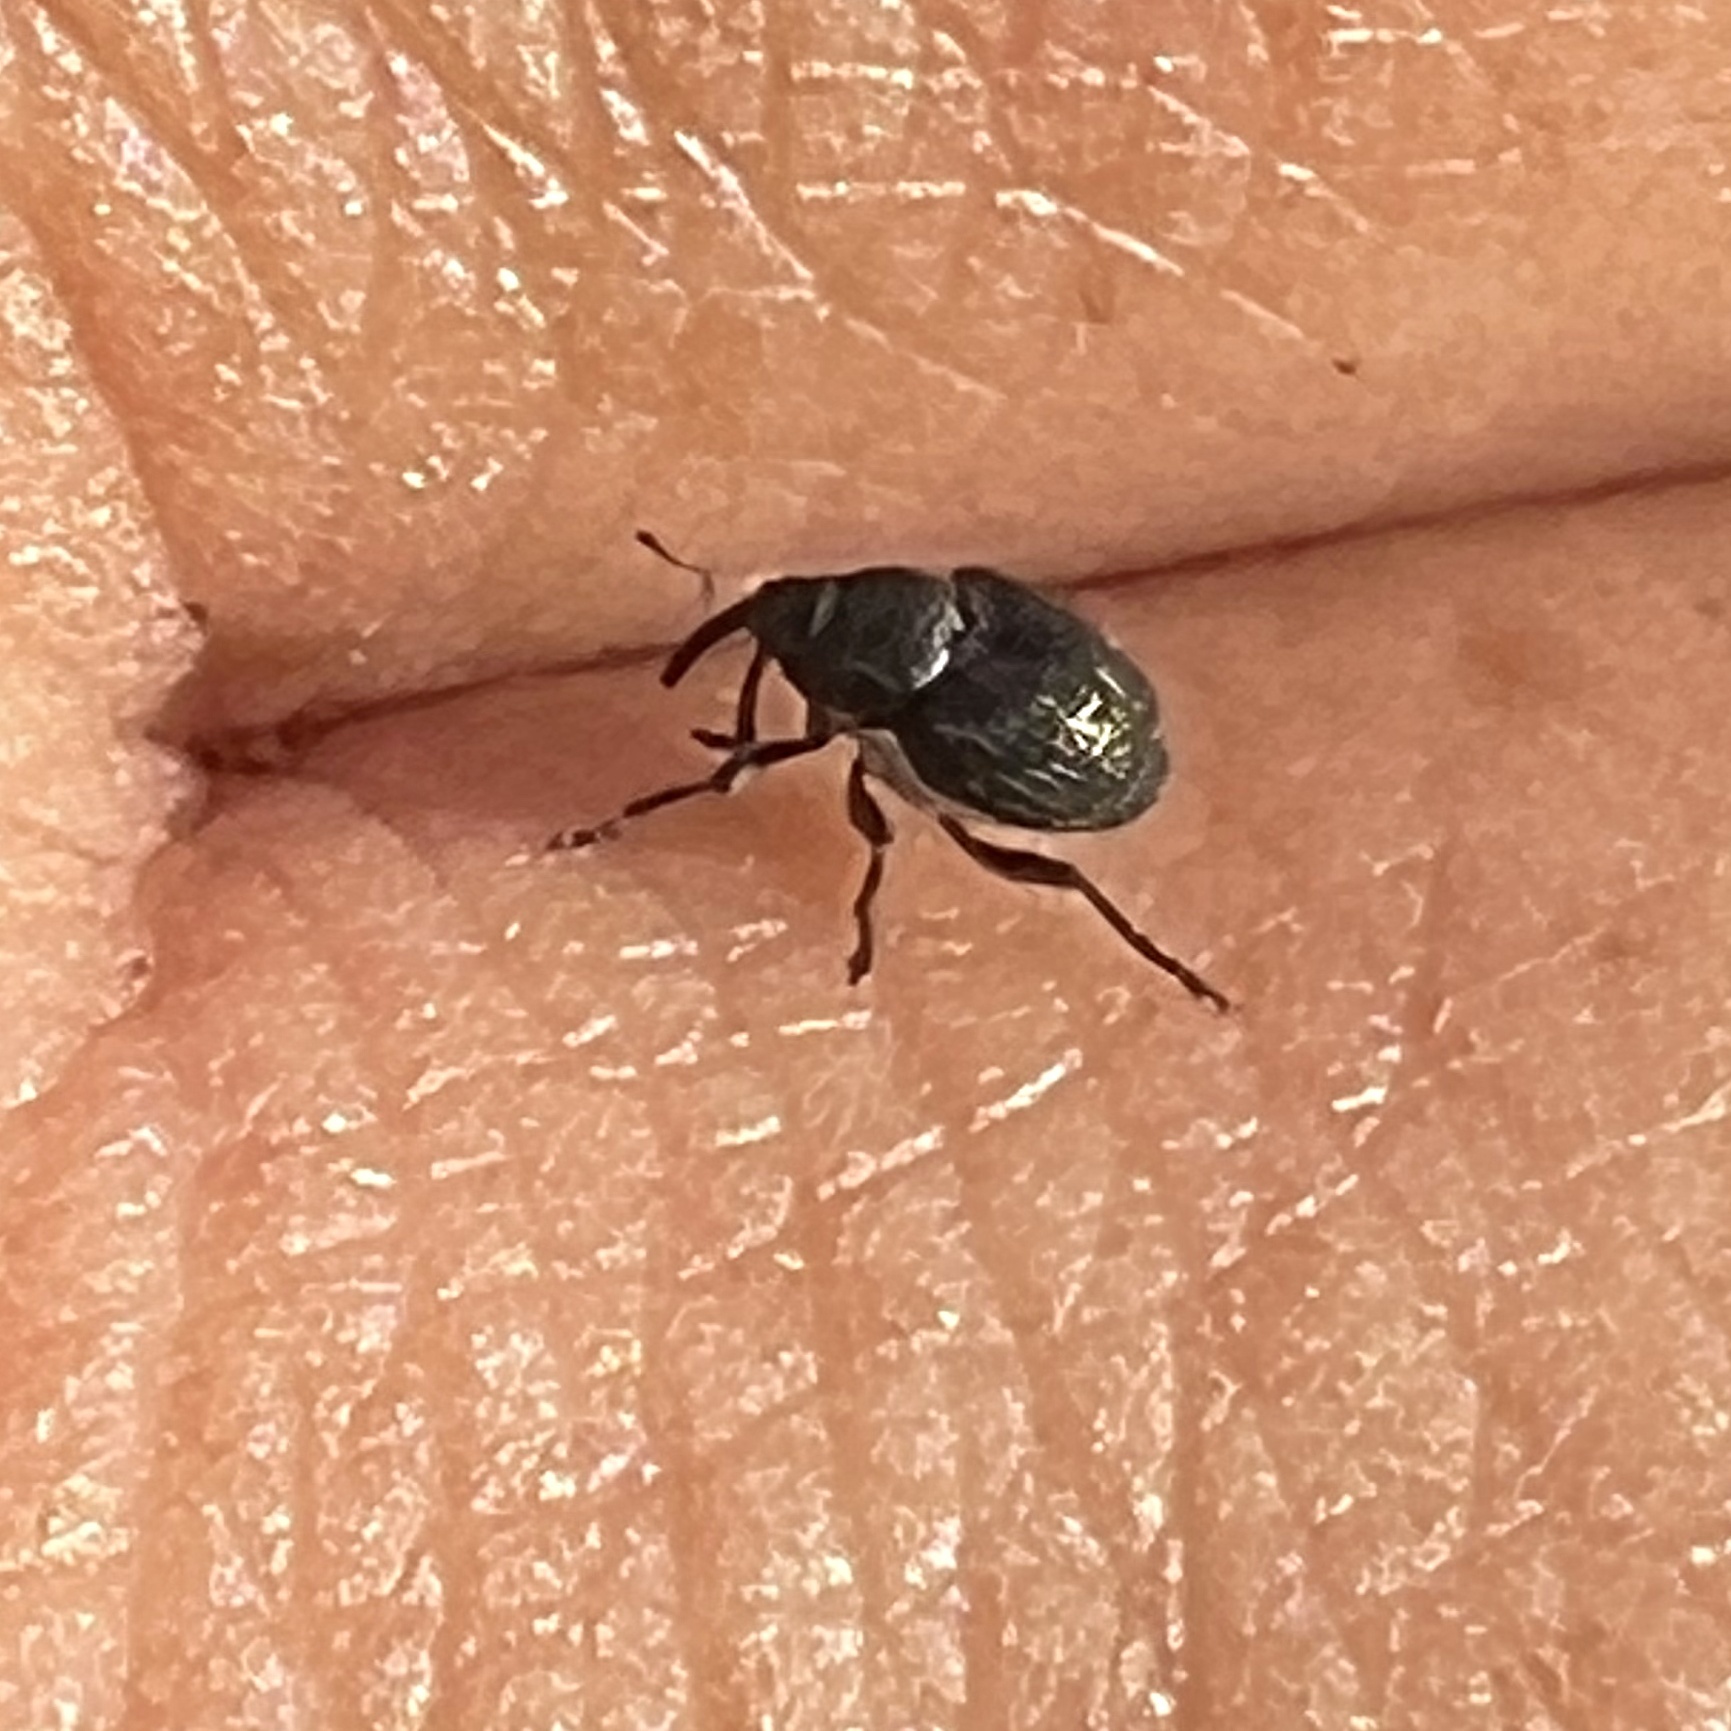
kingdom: Animalia
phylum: Arthropoda
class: Insecta
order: Coleoptera
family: Curculionidae
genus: Zacladus
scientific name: Zacladus geranii
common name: Meadow cranesbill weevil
